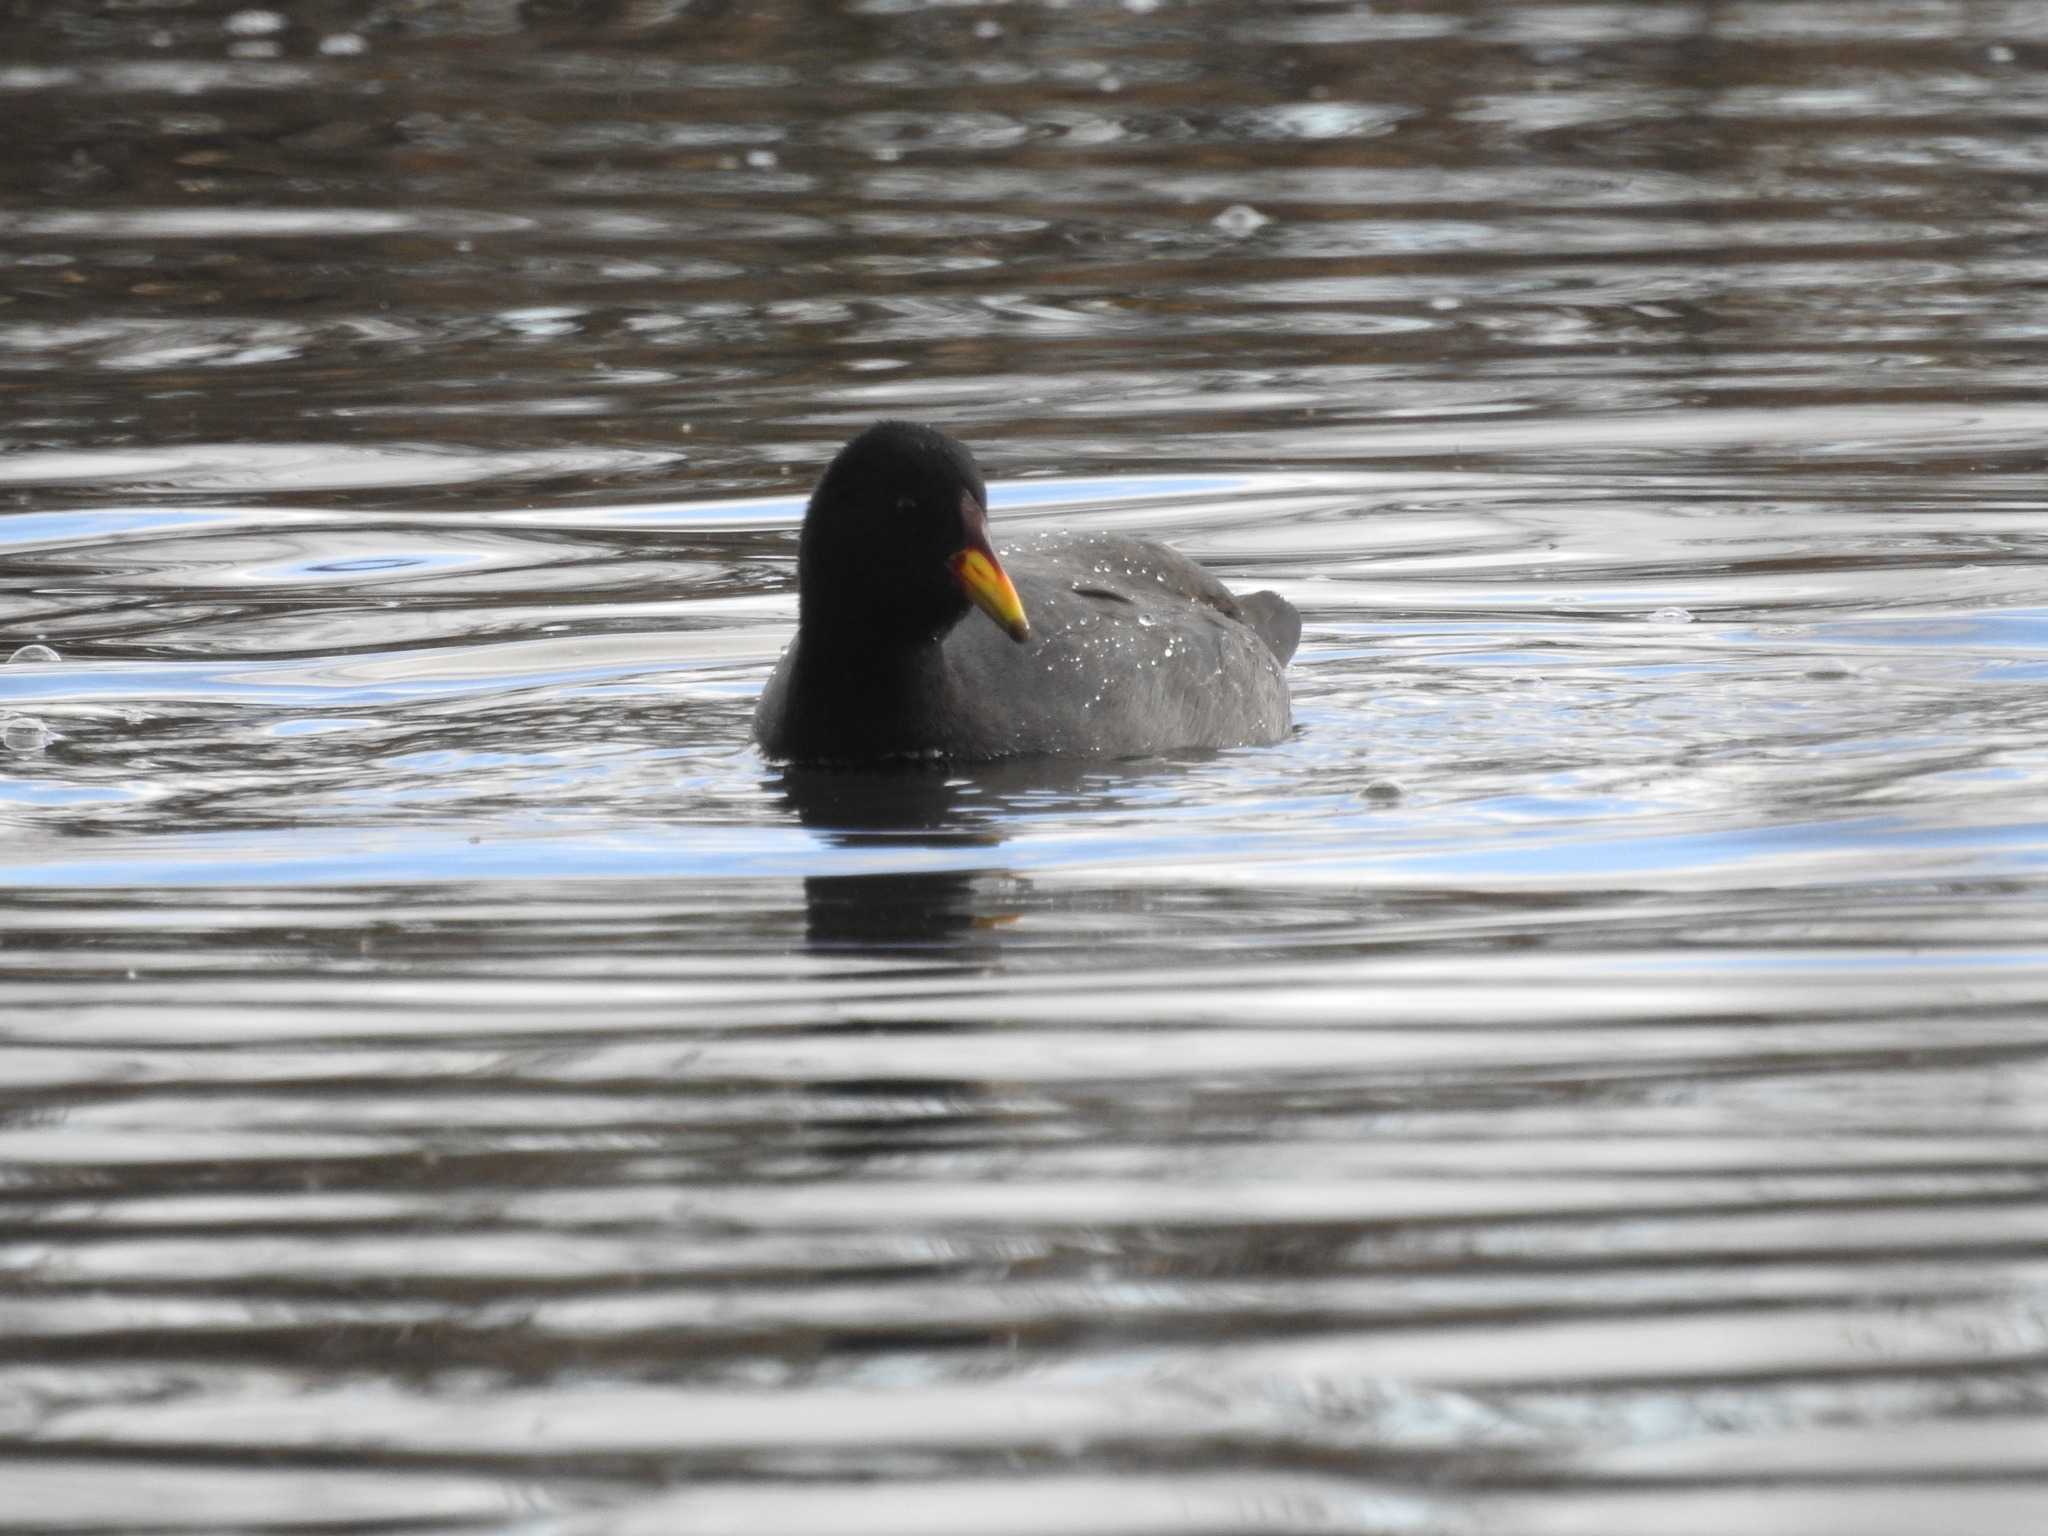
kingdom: Animalia
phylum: Chordata
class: Aves
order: Gruiformes
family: Rallidae
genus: Fulica
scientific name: Fulica rufifrons
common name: Red-fronted coot
